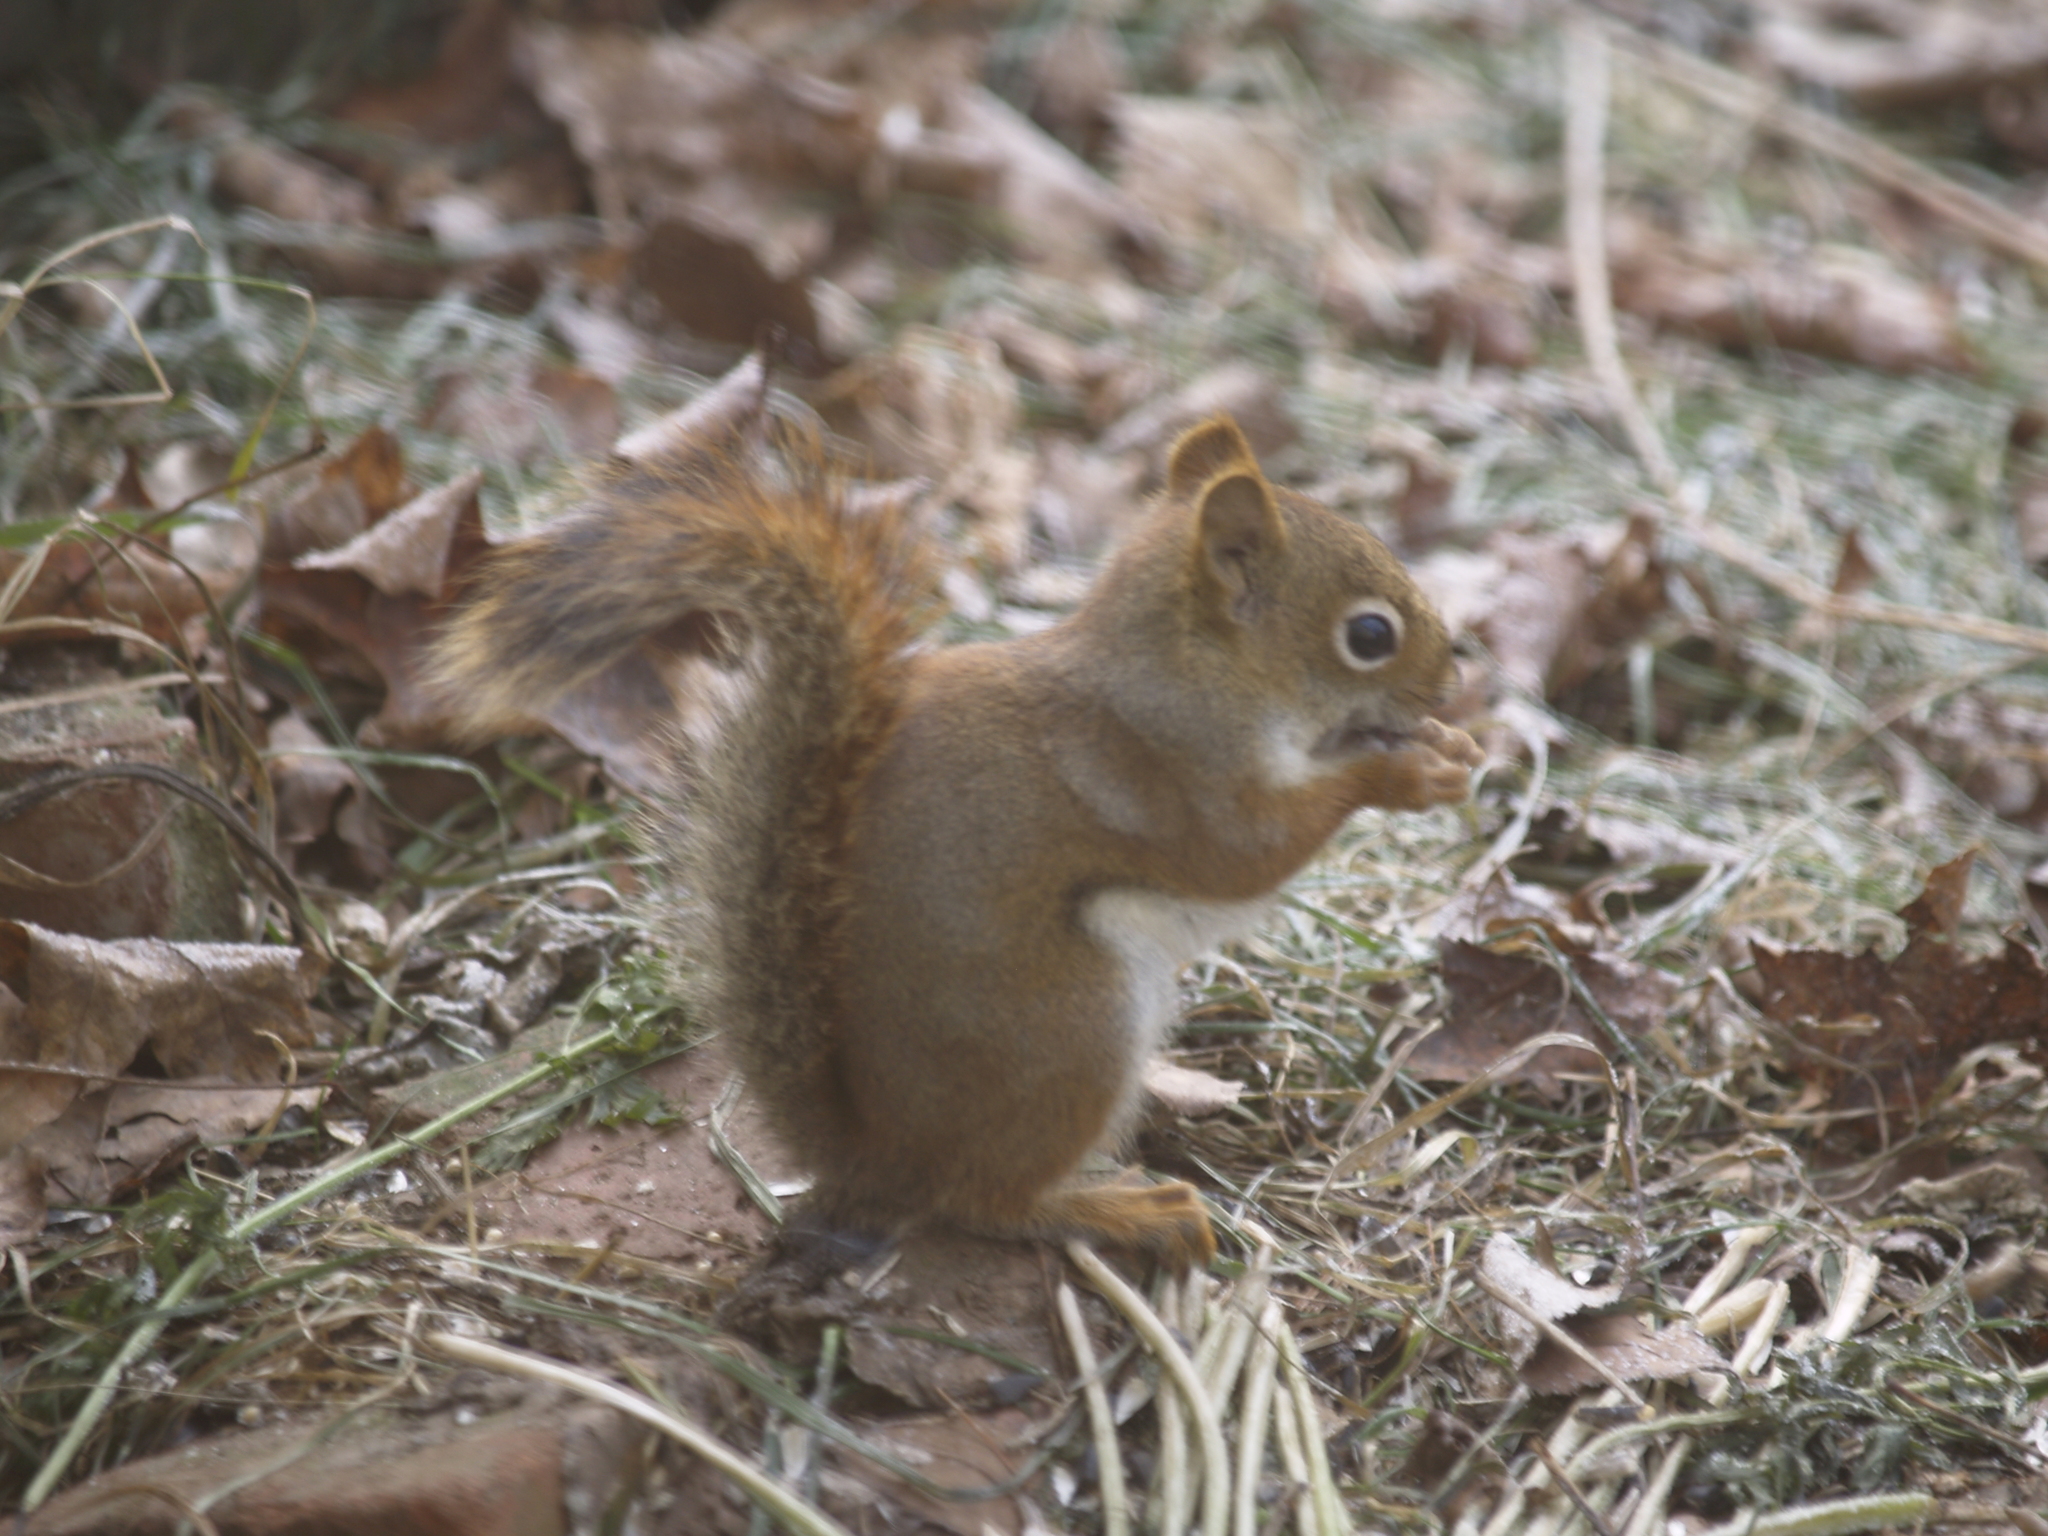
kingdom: Animalia
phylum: Chordata
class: Mammalia
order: Rodentia
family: Sciuridae
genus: Tamiasciurus
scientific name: Tamiasciurus hudsonicus
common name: Red squirrel
